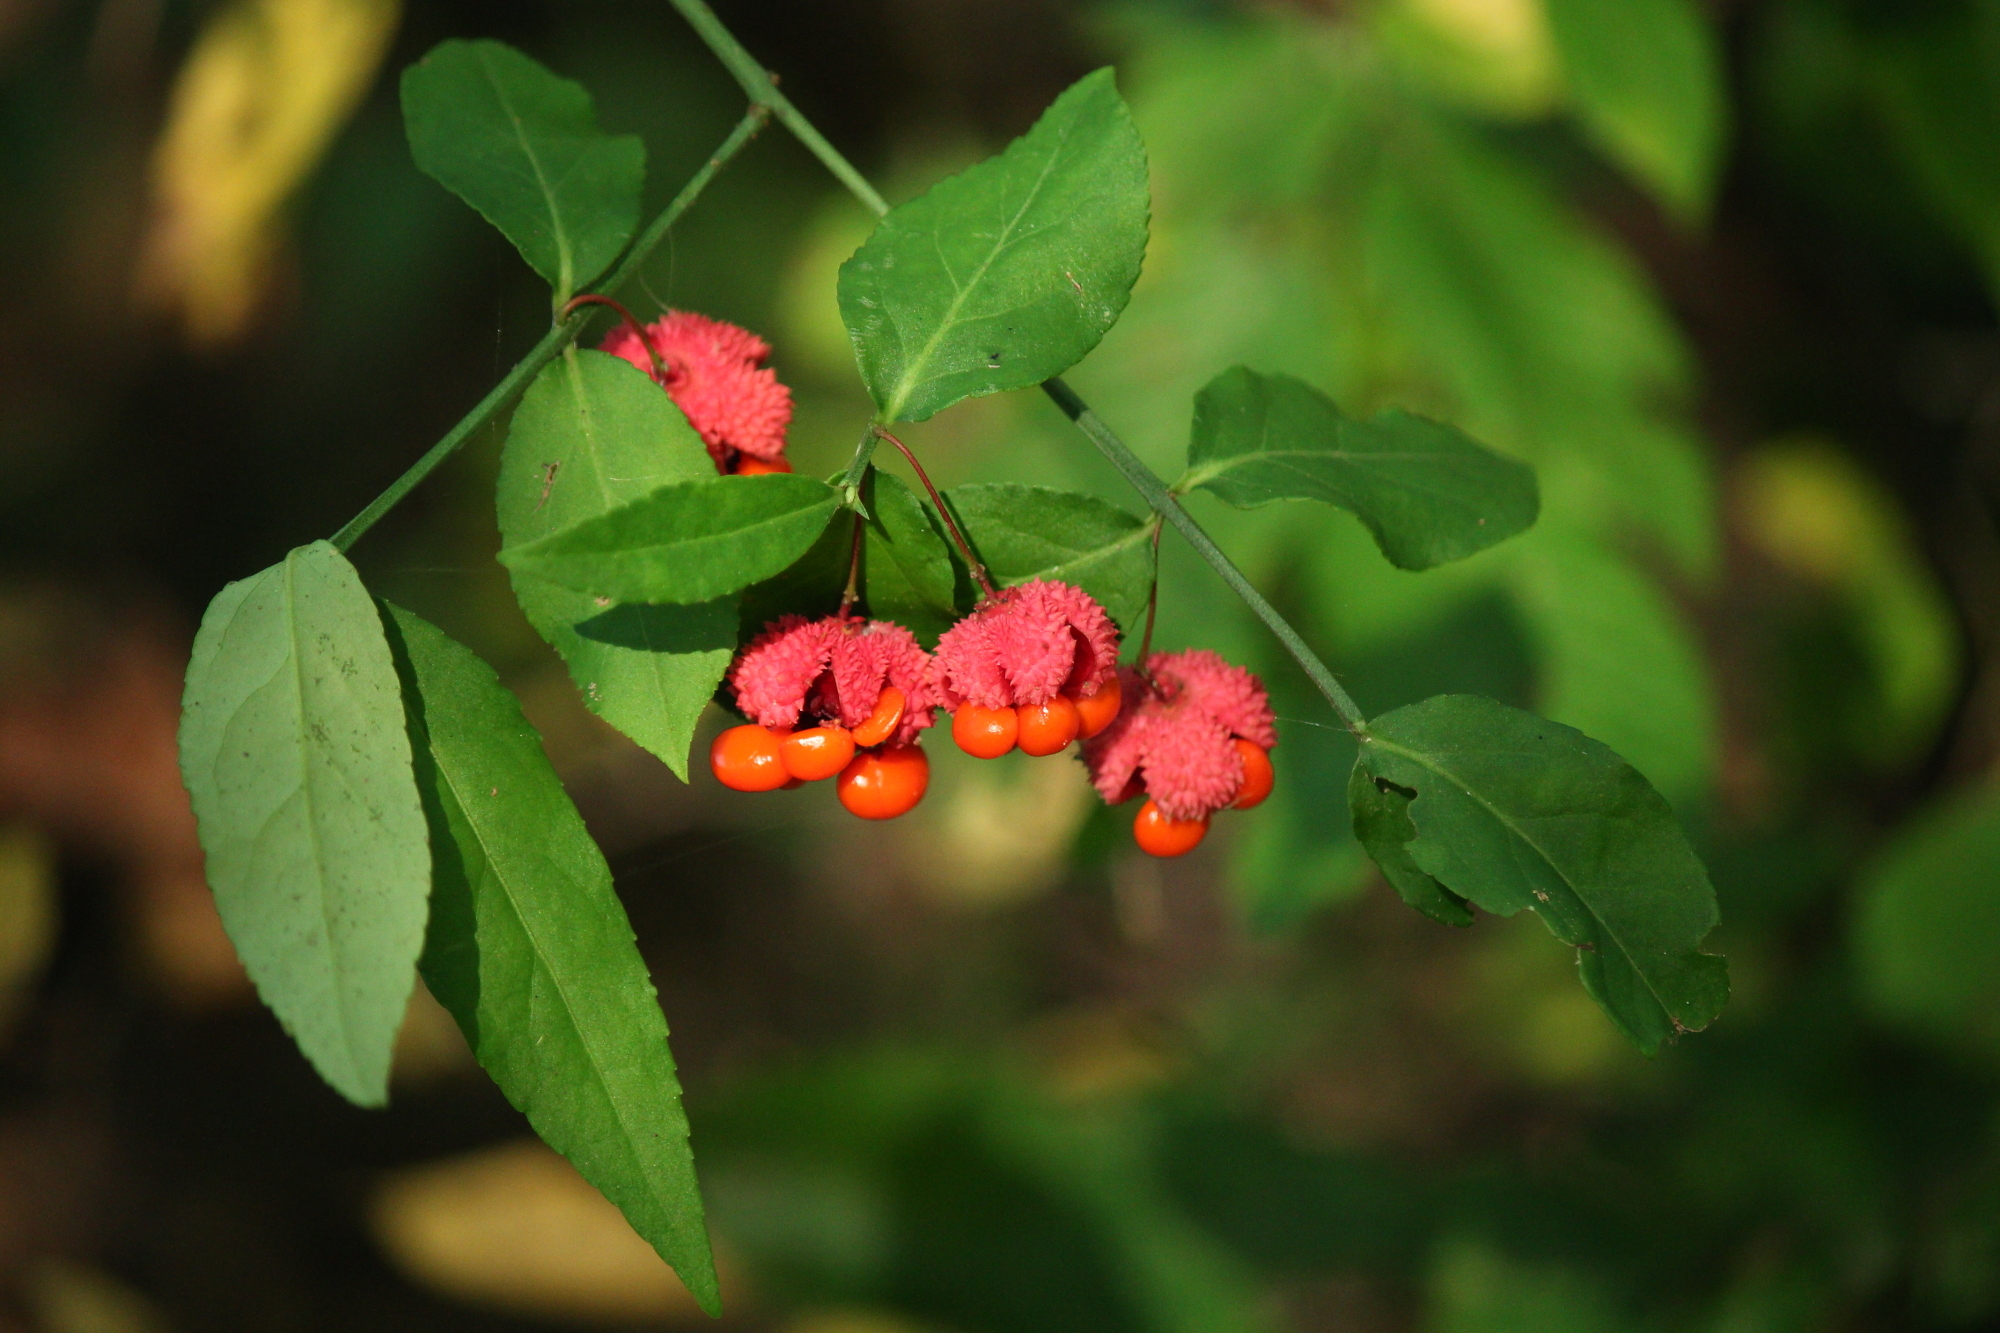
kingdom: Plantae
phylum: Tracheophyta
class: Magnoliopsida
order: Celastrales
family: Celastraceae
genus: Euonymus
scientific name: Euonymus americanus
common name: Bursting-heart
